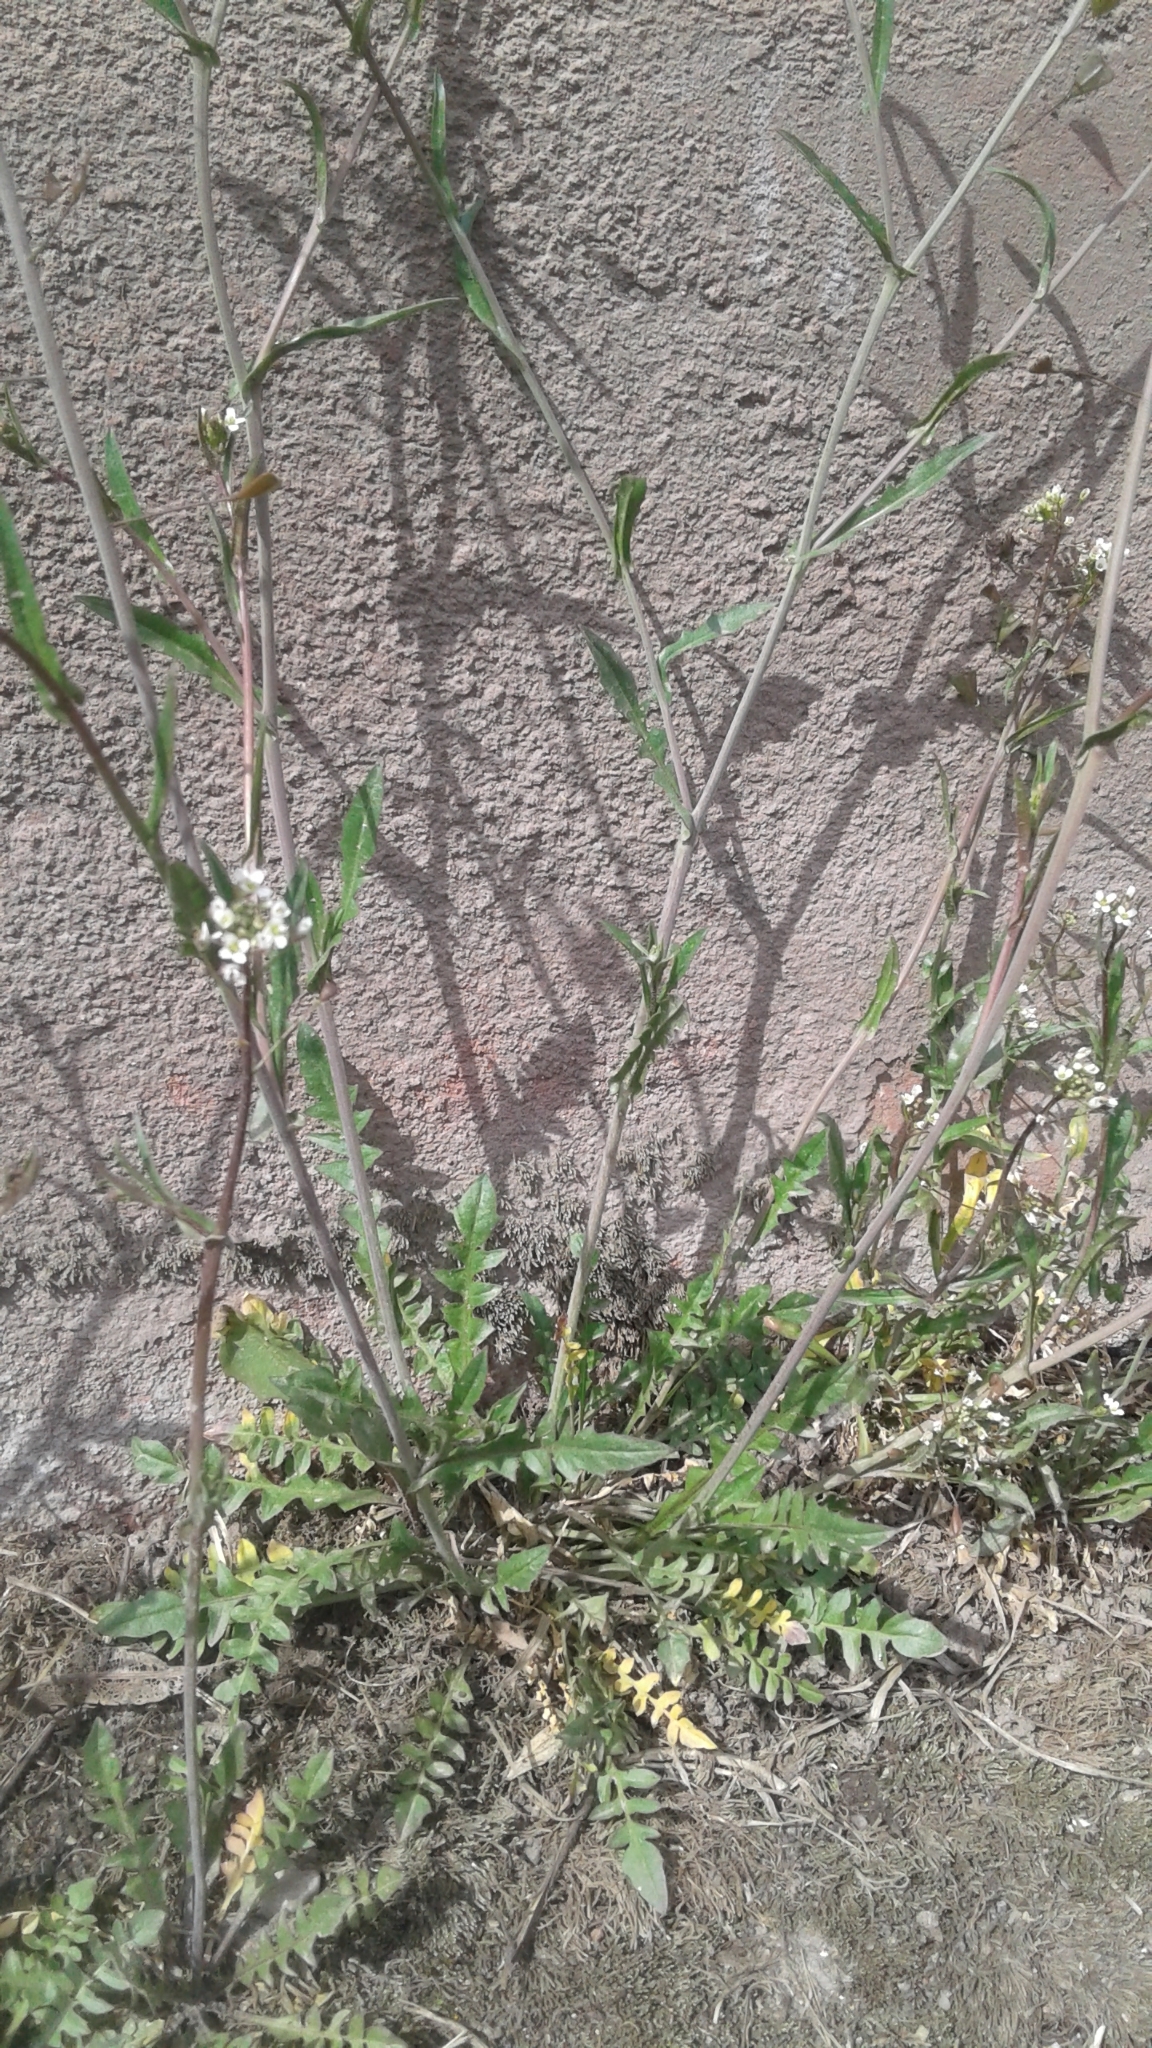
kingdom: Plantae
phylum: Tracheophyta
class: Magnoliopsida
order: Brassicales
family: Brassicaceae
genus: Capsella
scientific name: Capsella bursa-pastoris
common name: Shepherd's purse
